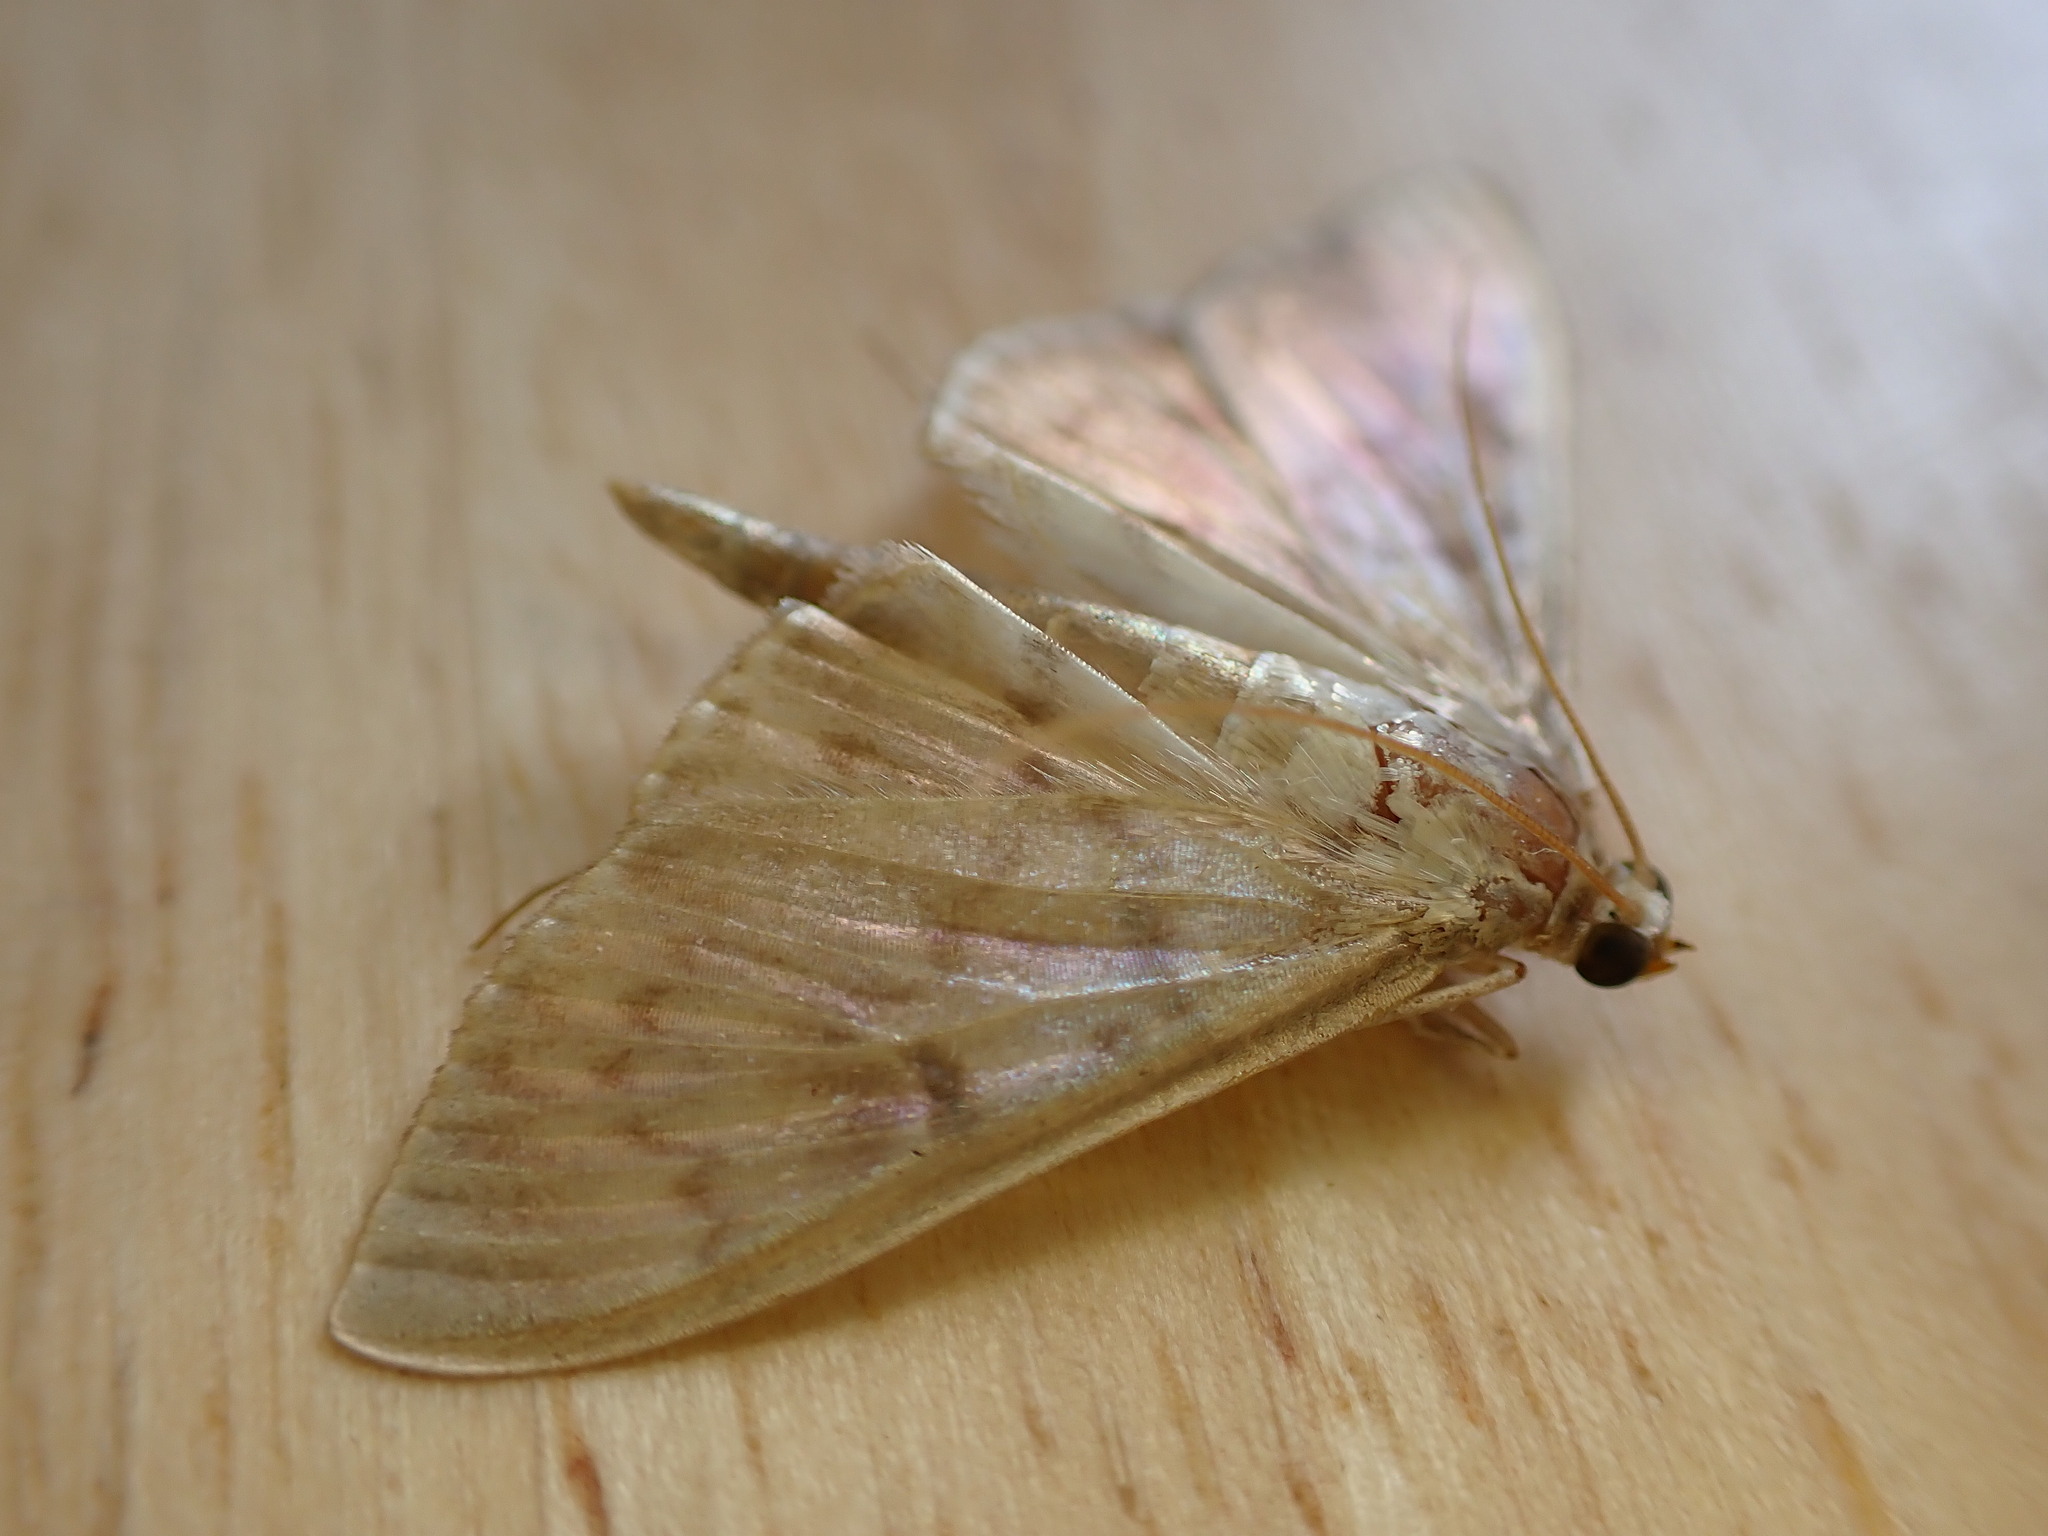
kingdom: Animalia
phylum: Arthropoda
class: Insecta
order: Lepidoptera
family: Crambidae
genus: Patania
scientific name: Patania ruralis
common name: Mother of pearl
